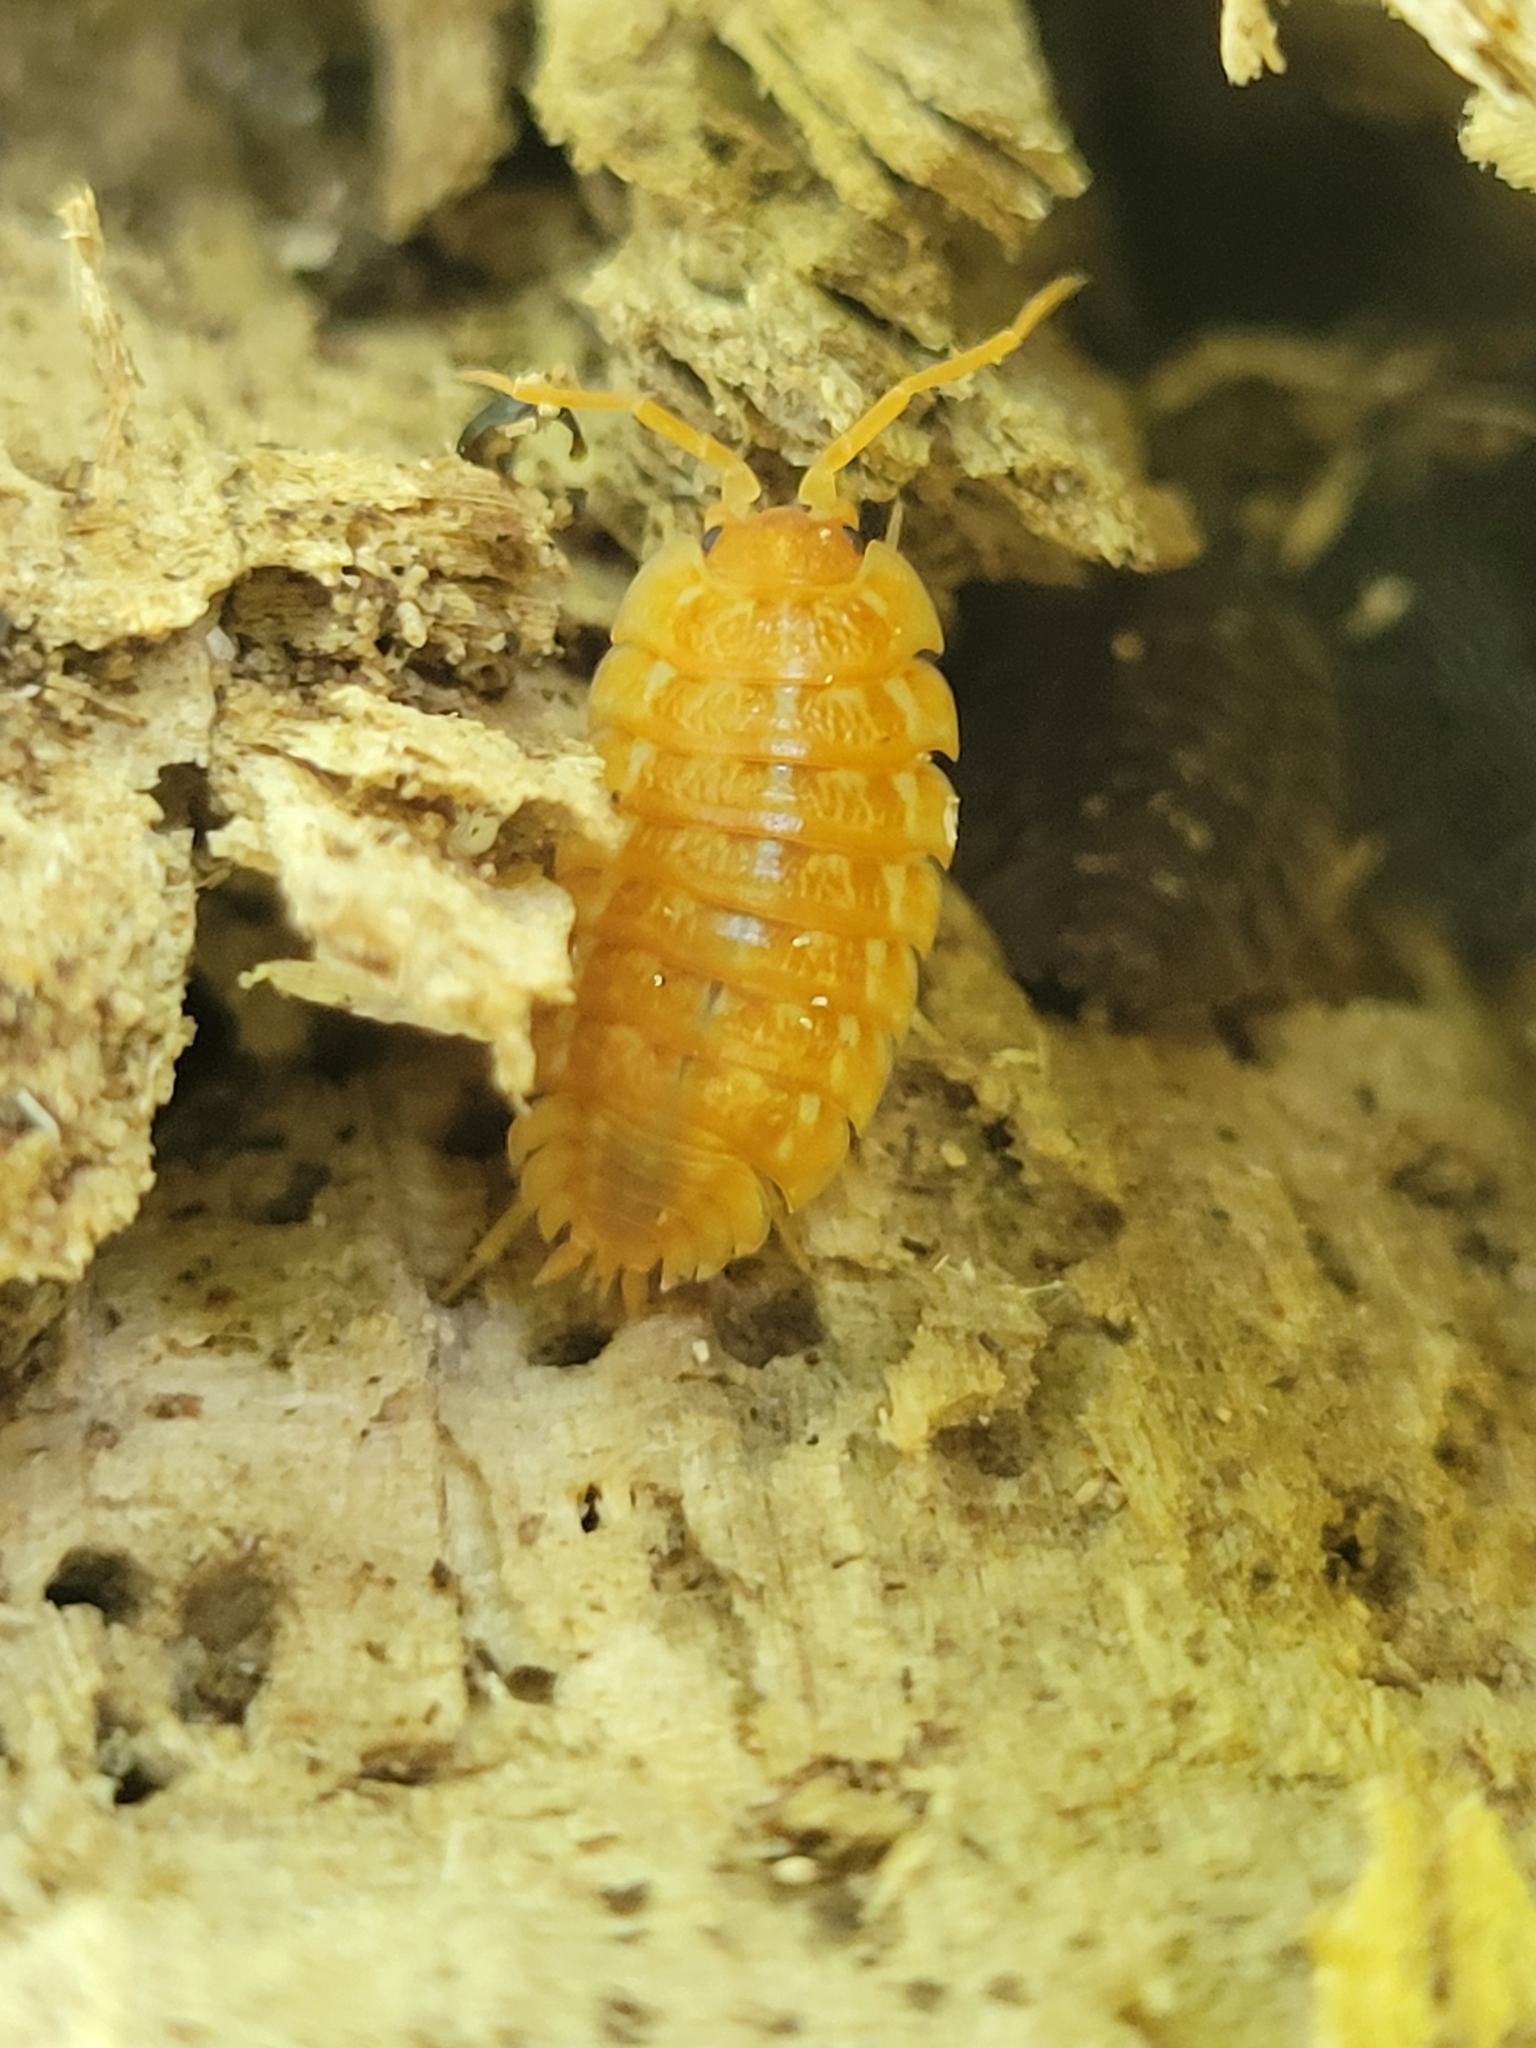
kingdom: Animalia
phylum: Arthropoda
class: Malacostraca
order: Isopoda
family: Trachelipodidae
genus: Trachelipus
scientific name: Trachelipus rathkii
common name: Isopod
